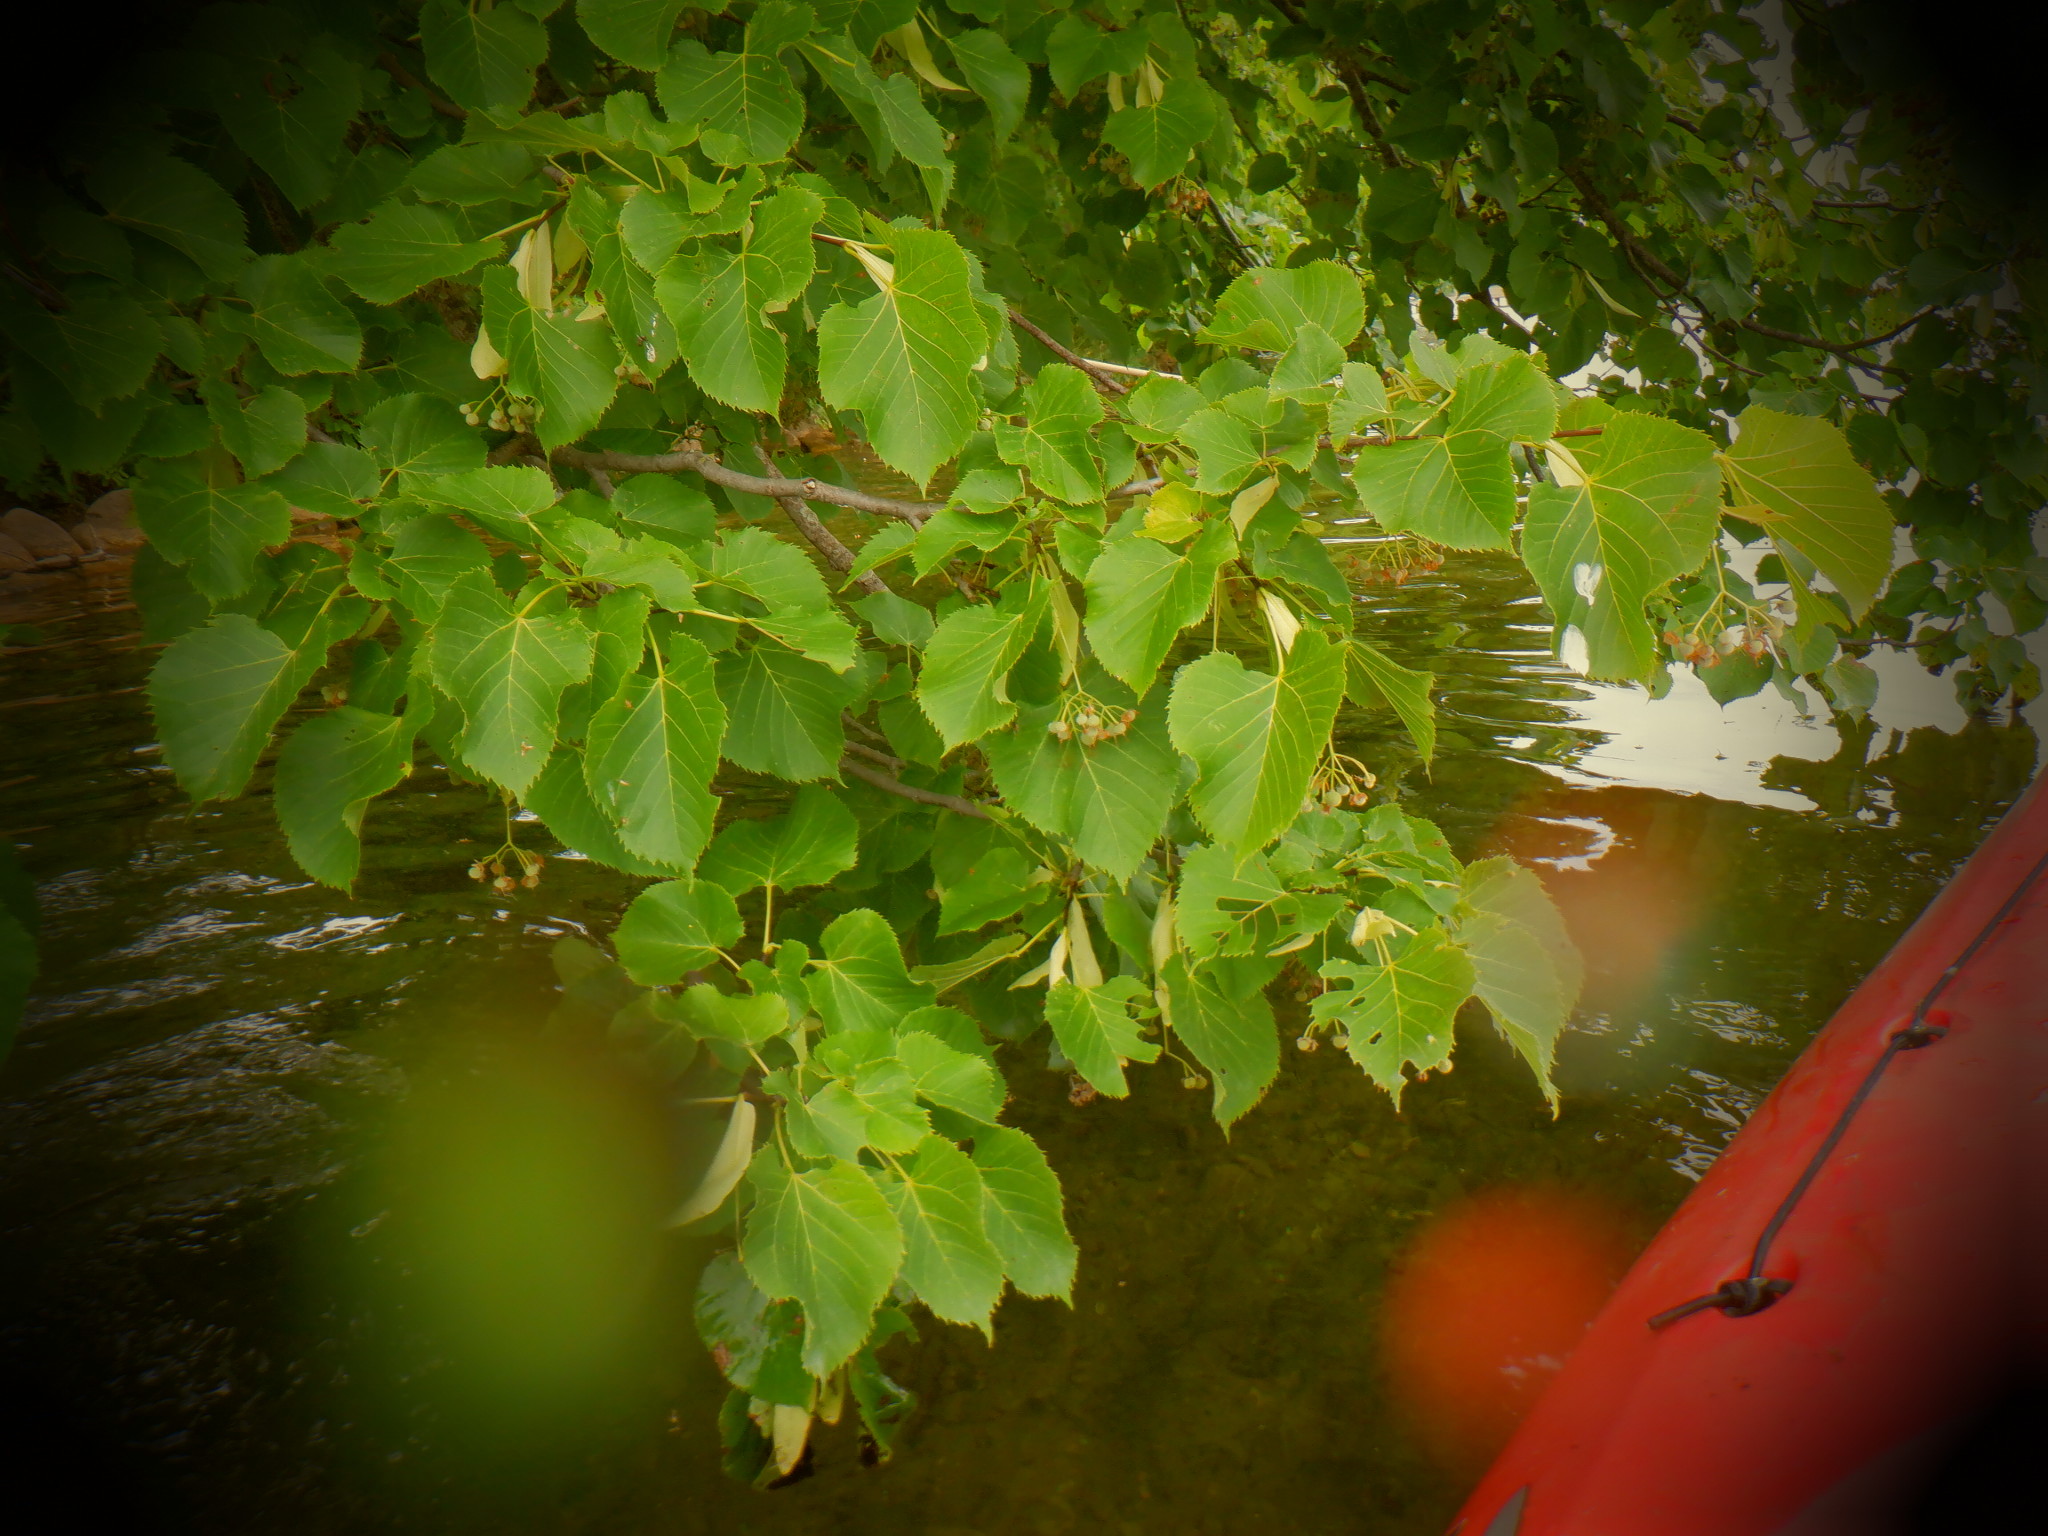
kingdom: Plantae
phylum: Tracheophyta
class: Magnoliopsida
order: Malvales
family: Malvaceae
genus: Tilia
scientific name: Tilia americana
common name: Basswood
